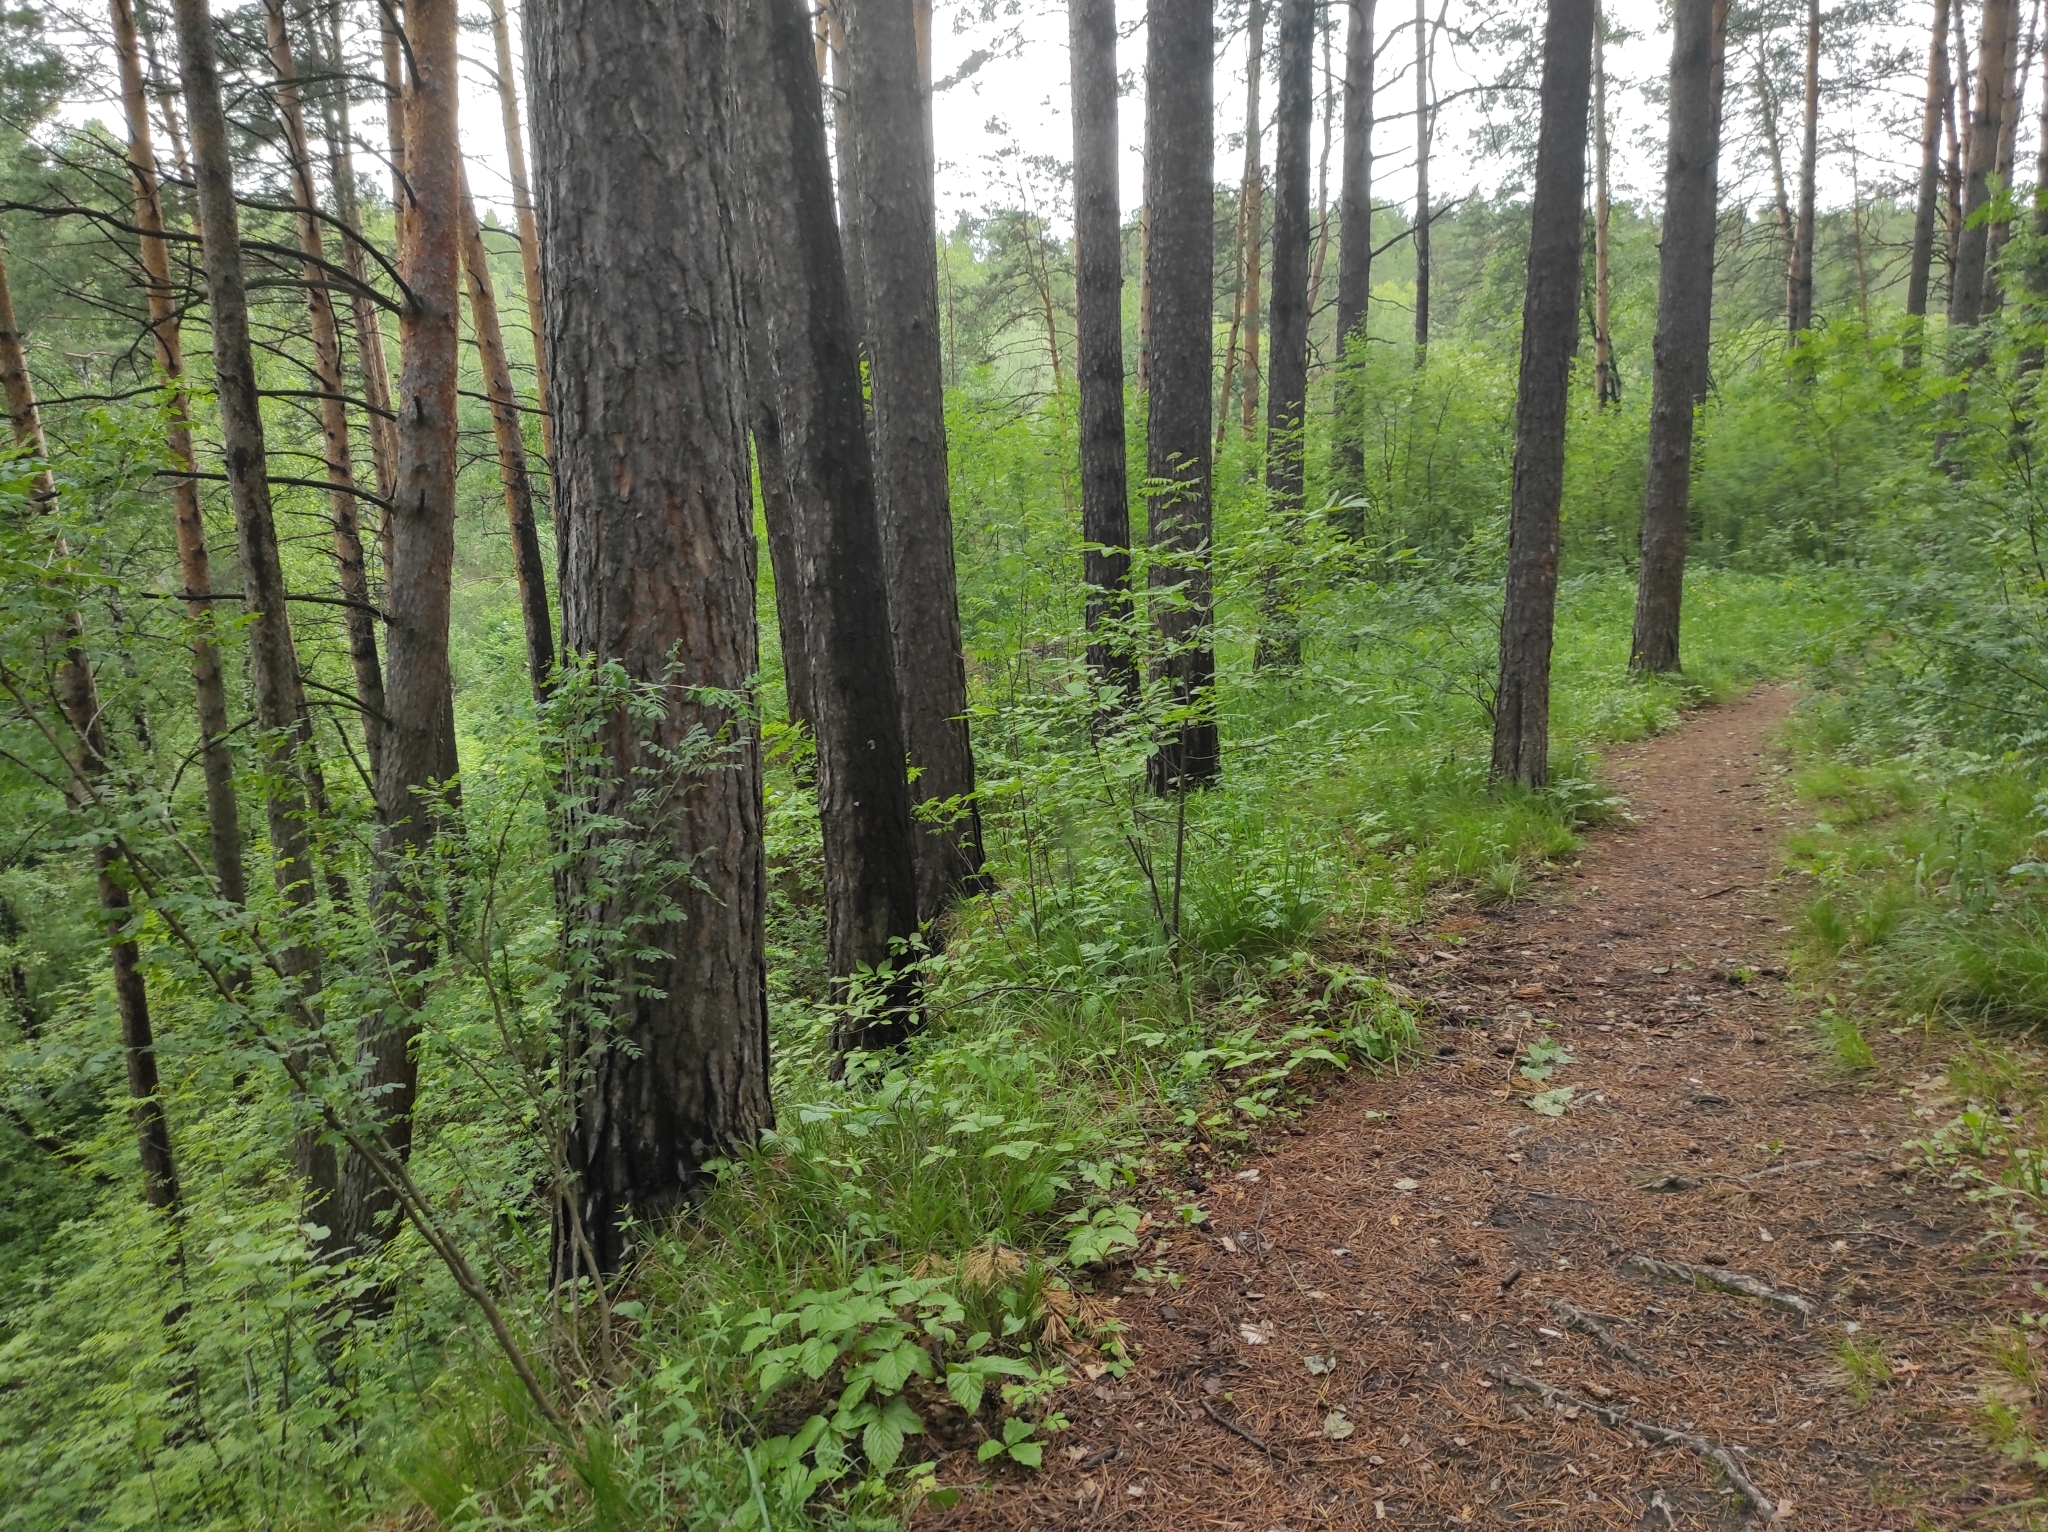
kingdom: Plantae
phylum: Tracheophyta
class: Pinopsida
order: Pinales
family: Pinaceae
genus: Pinus
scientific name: Pinus sylvestris
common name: Scots pine
